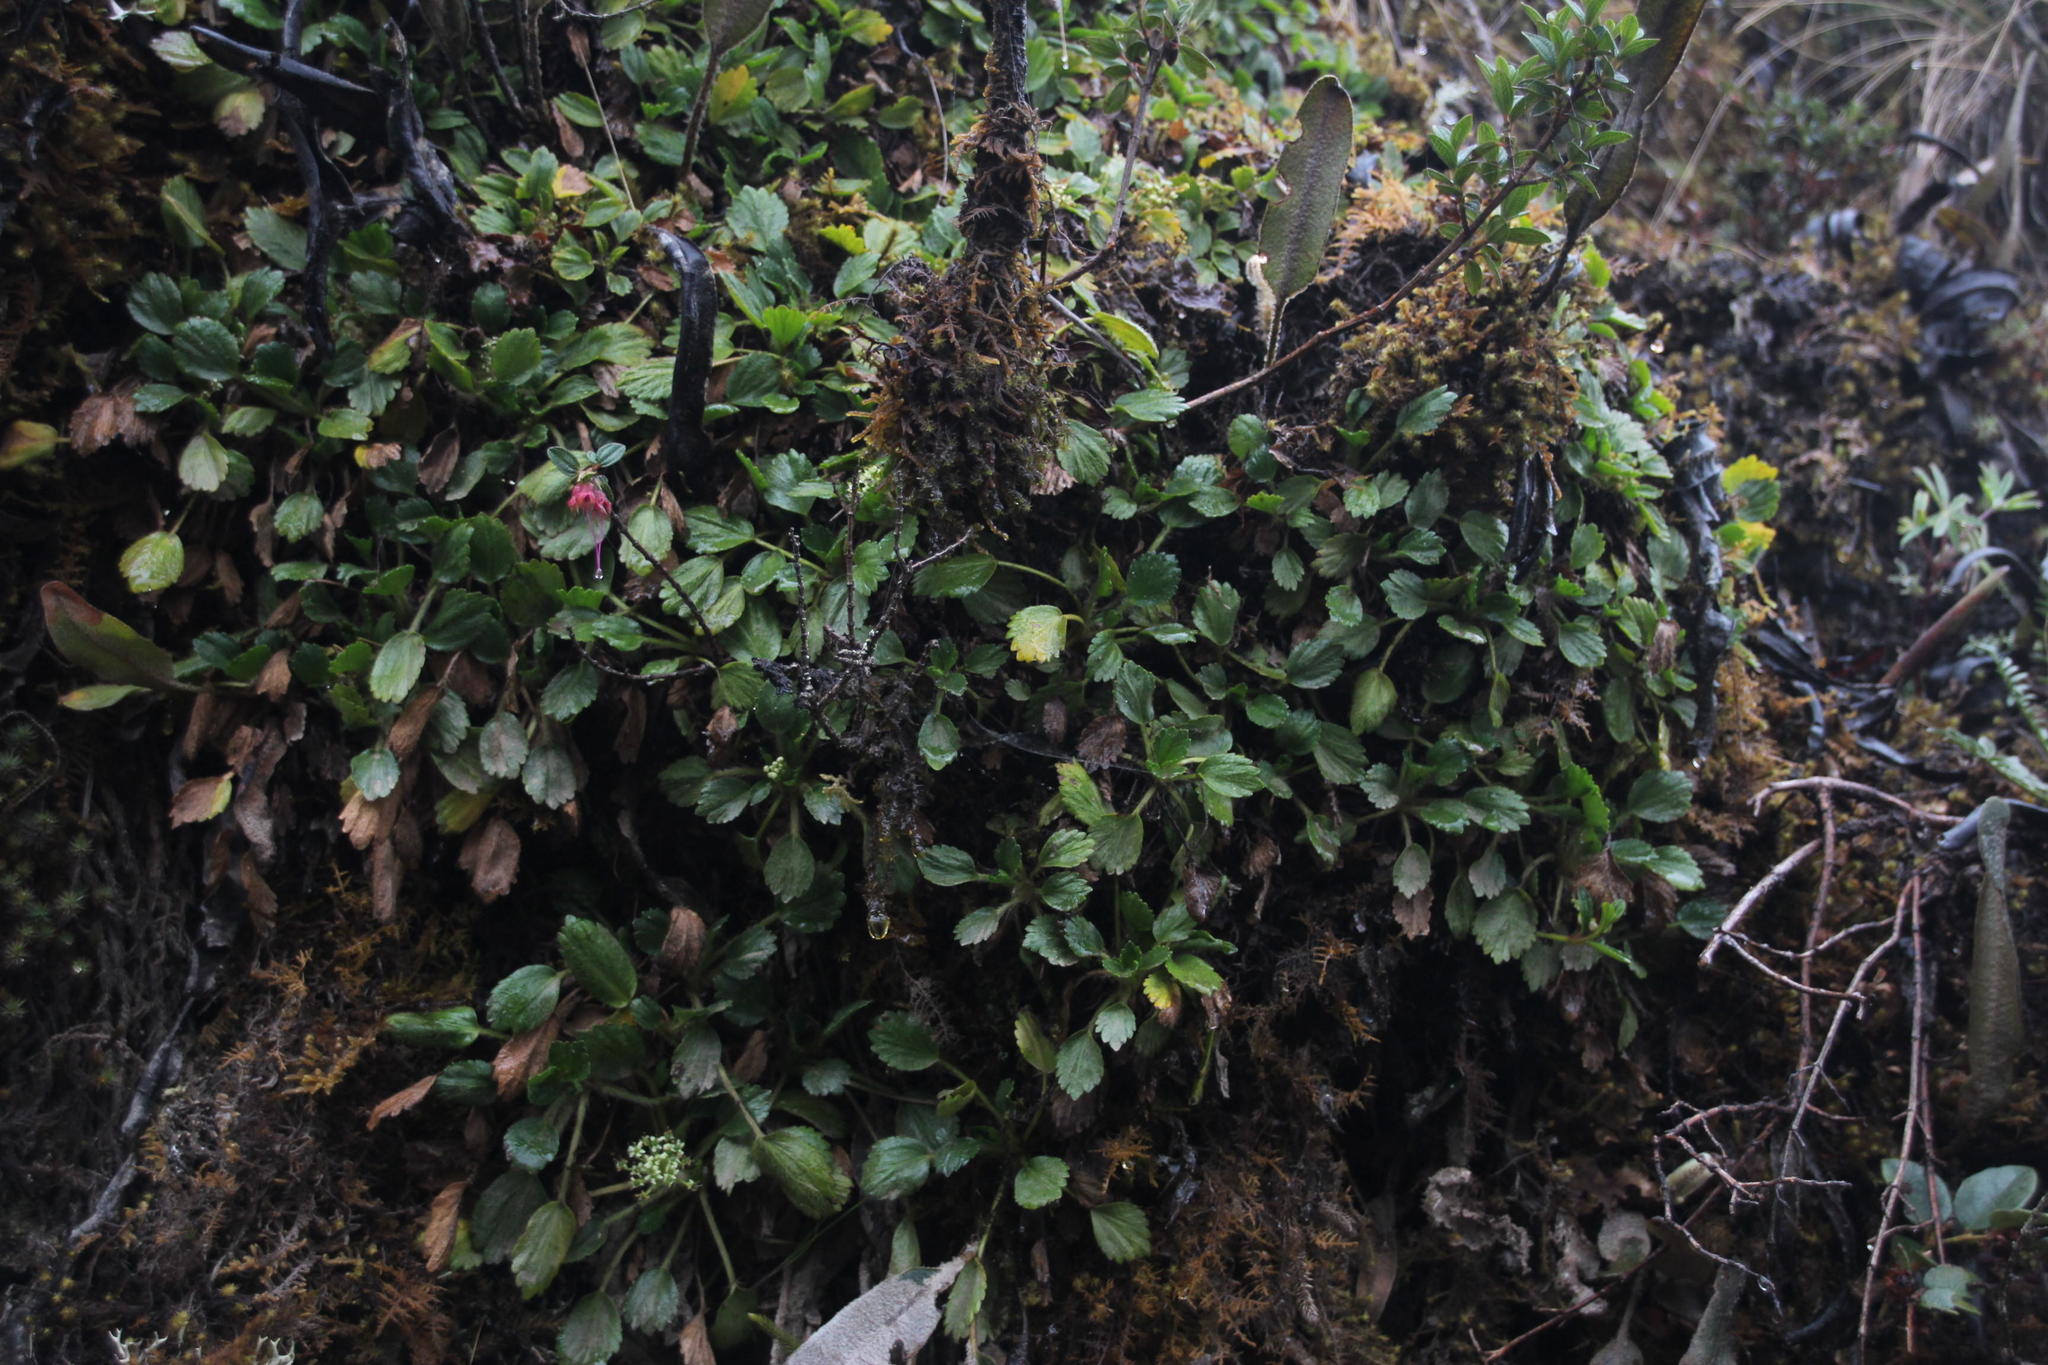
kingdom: Plantae
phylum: Tracheophyta
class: Magnoliopsida
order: Apiales
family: Apiaceae
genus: Azorella
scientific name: Azorella crenata
